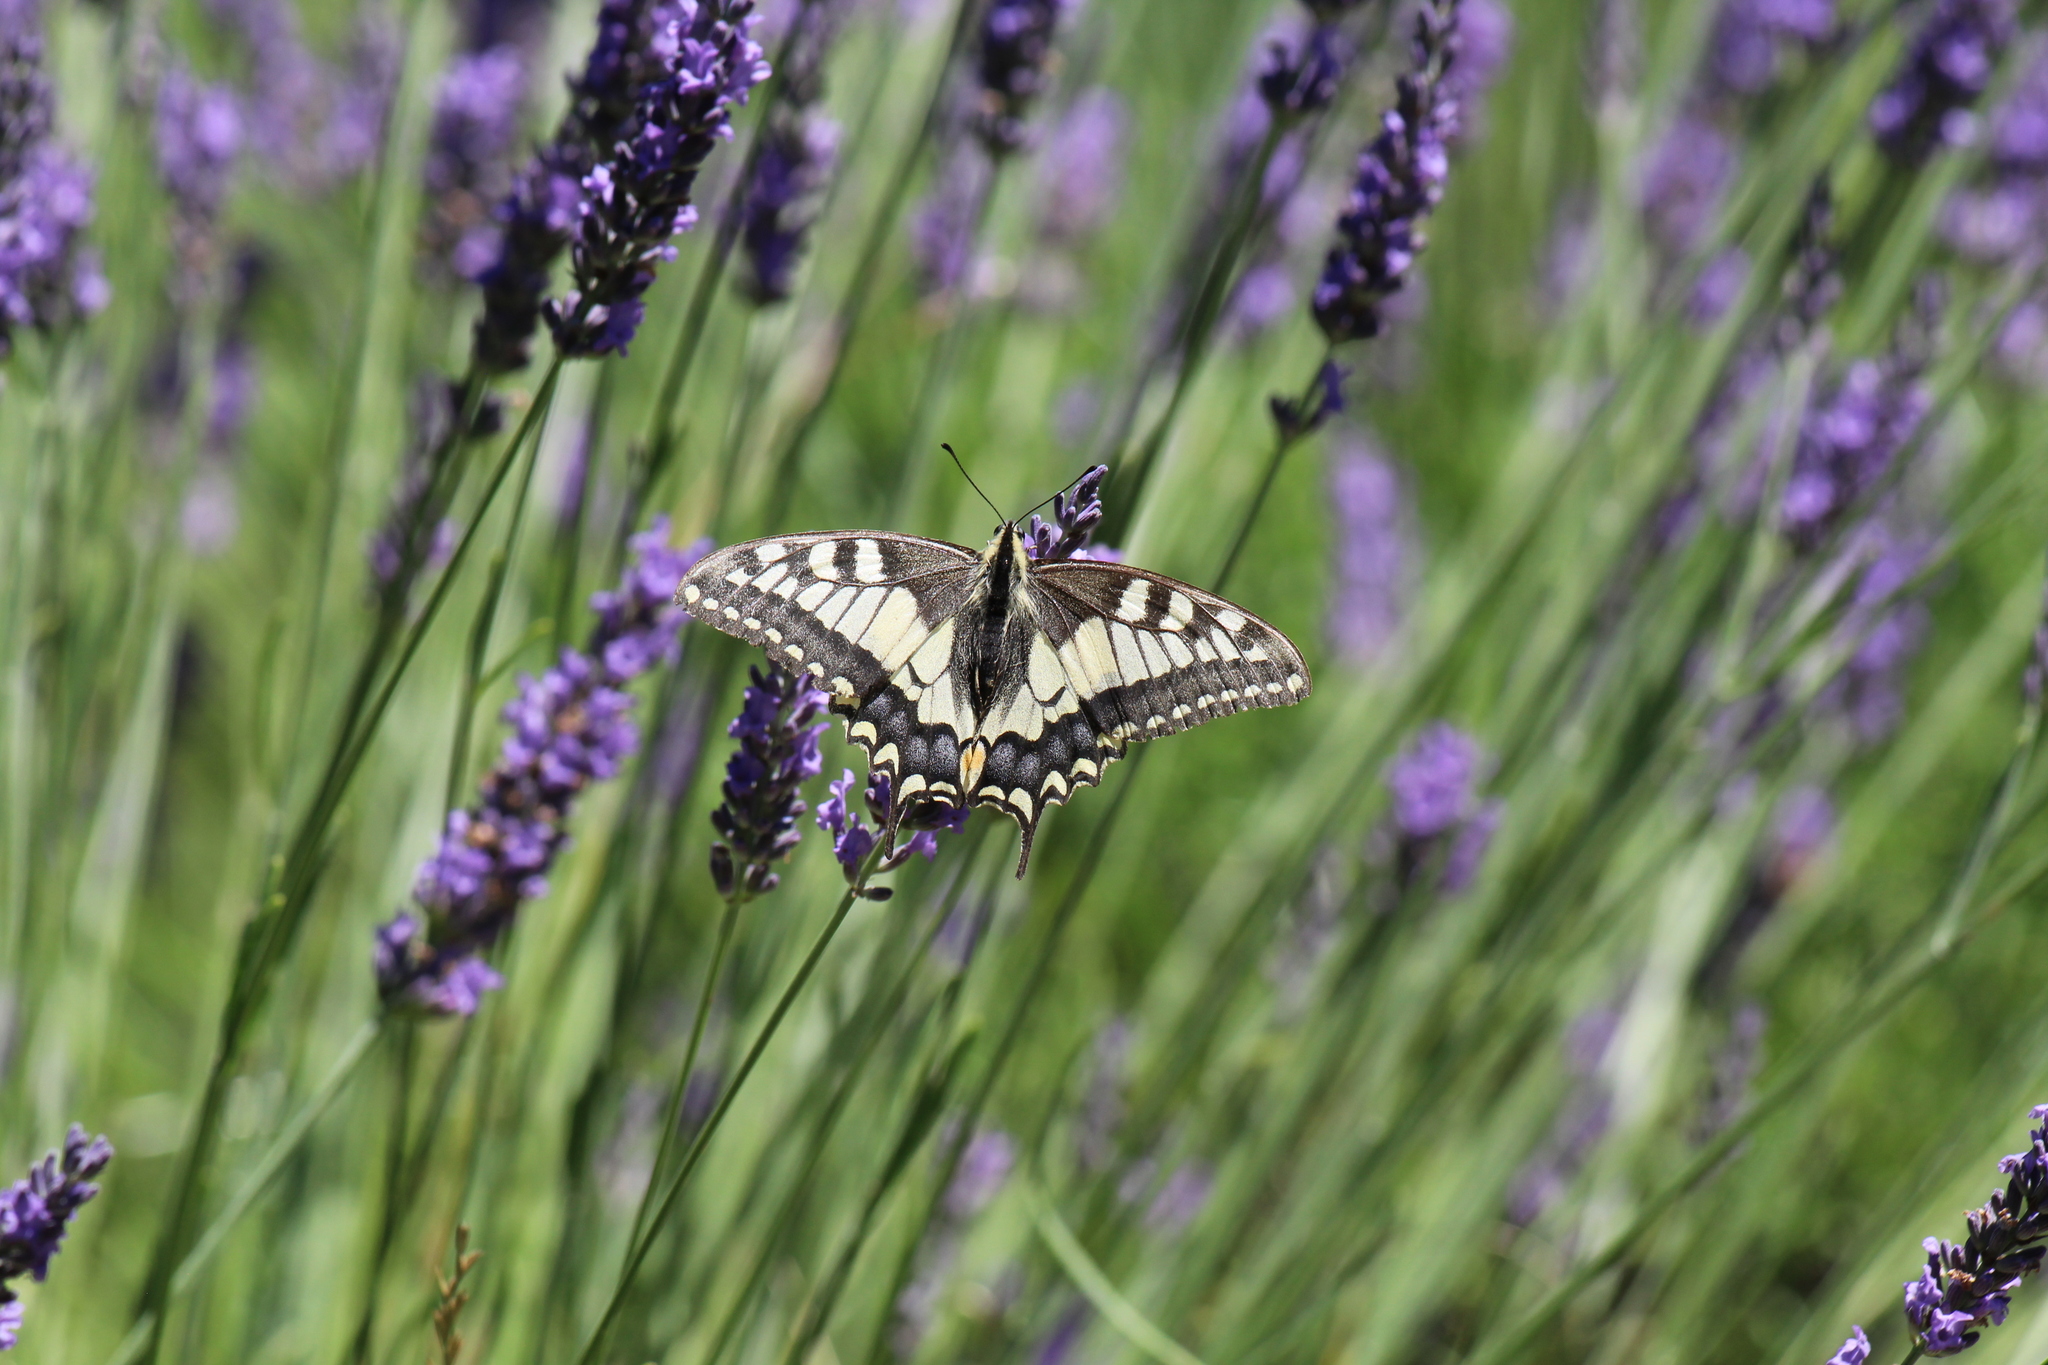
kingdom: Animalia
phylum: Arthropoda
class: Insecta
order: Lepidoptera
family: Papilionidae
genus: Papilio
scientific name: Papilio machaon
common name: Swallowtail
